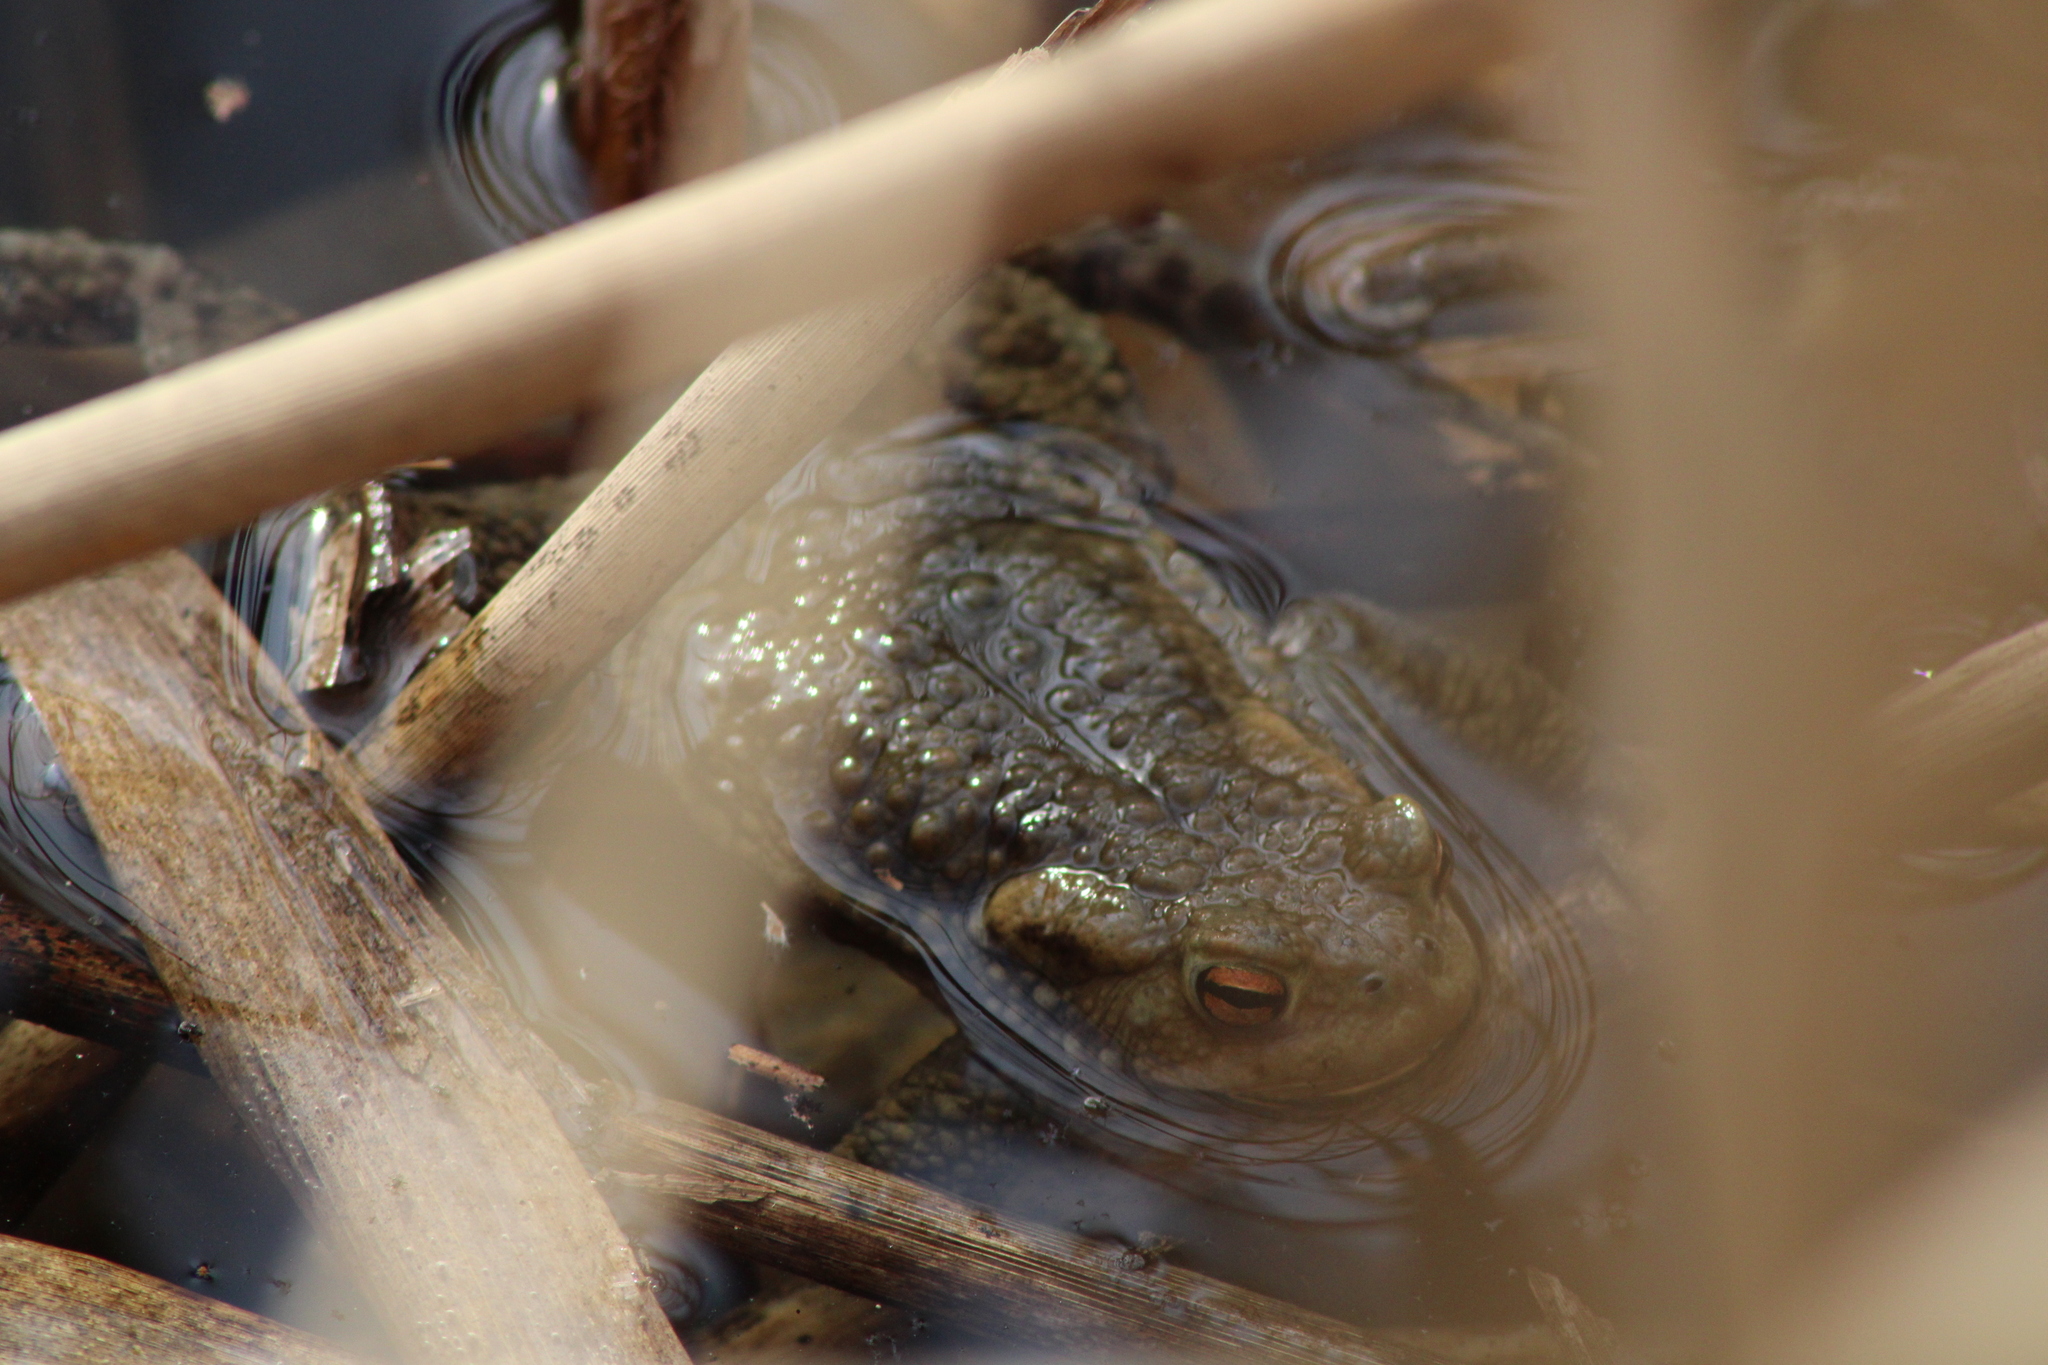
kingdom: Animalia
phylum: Chordata
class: Amphibia
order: Anura
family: Bufonidae
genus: Bufo
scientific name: Bufo bufo
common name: Common toad
